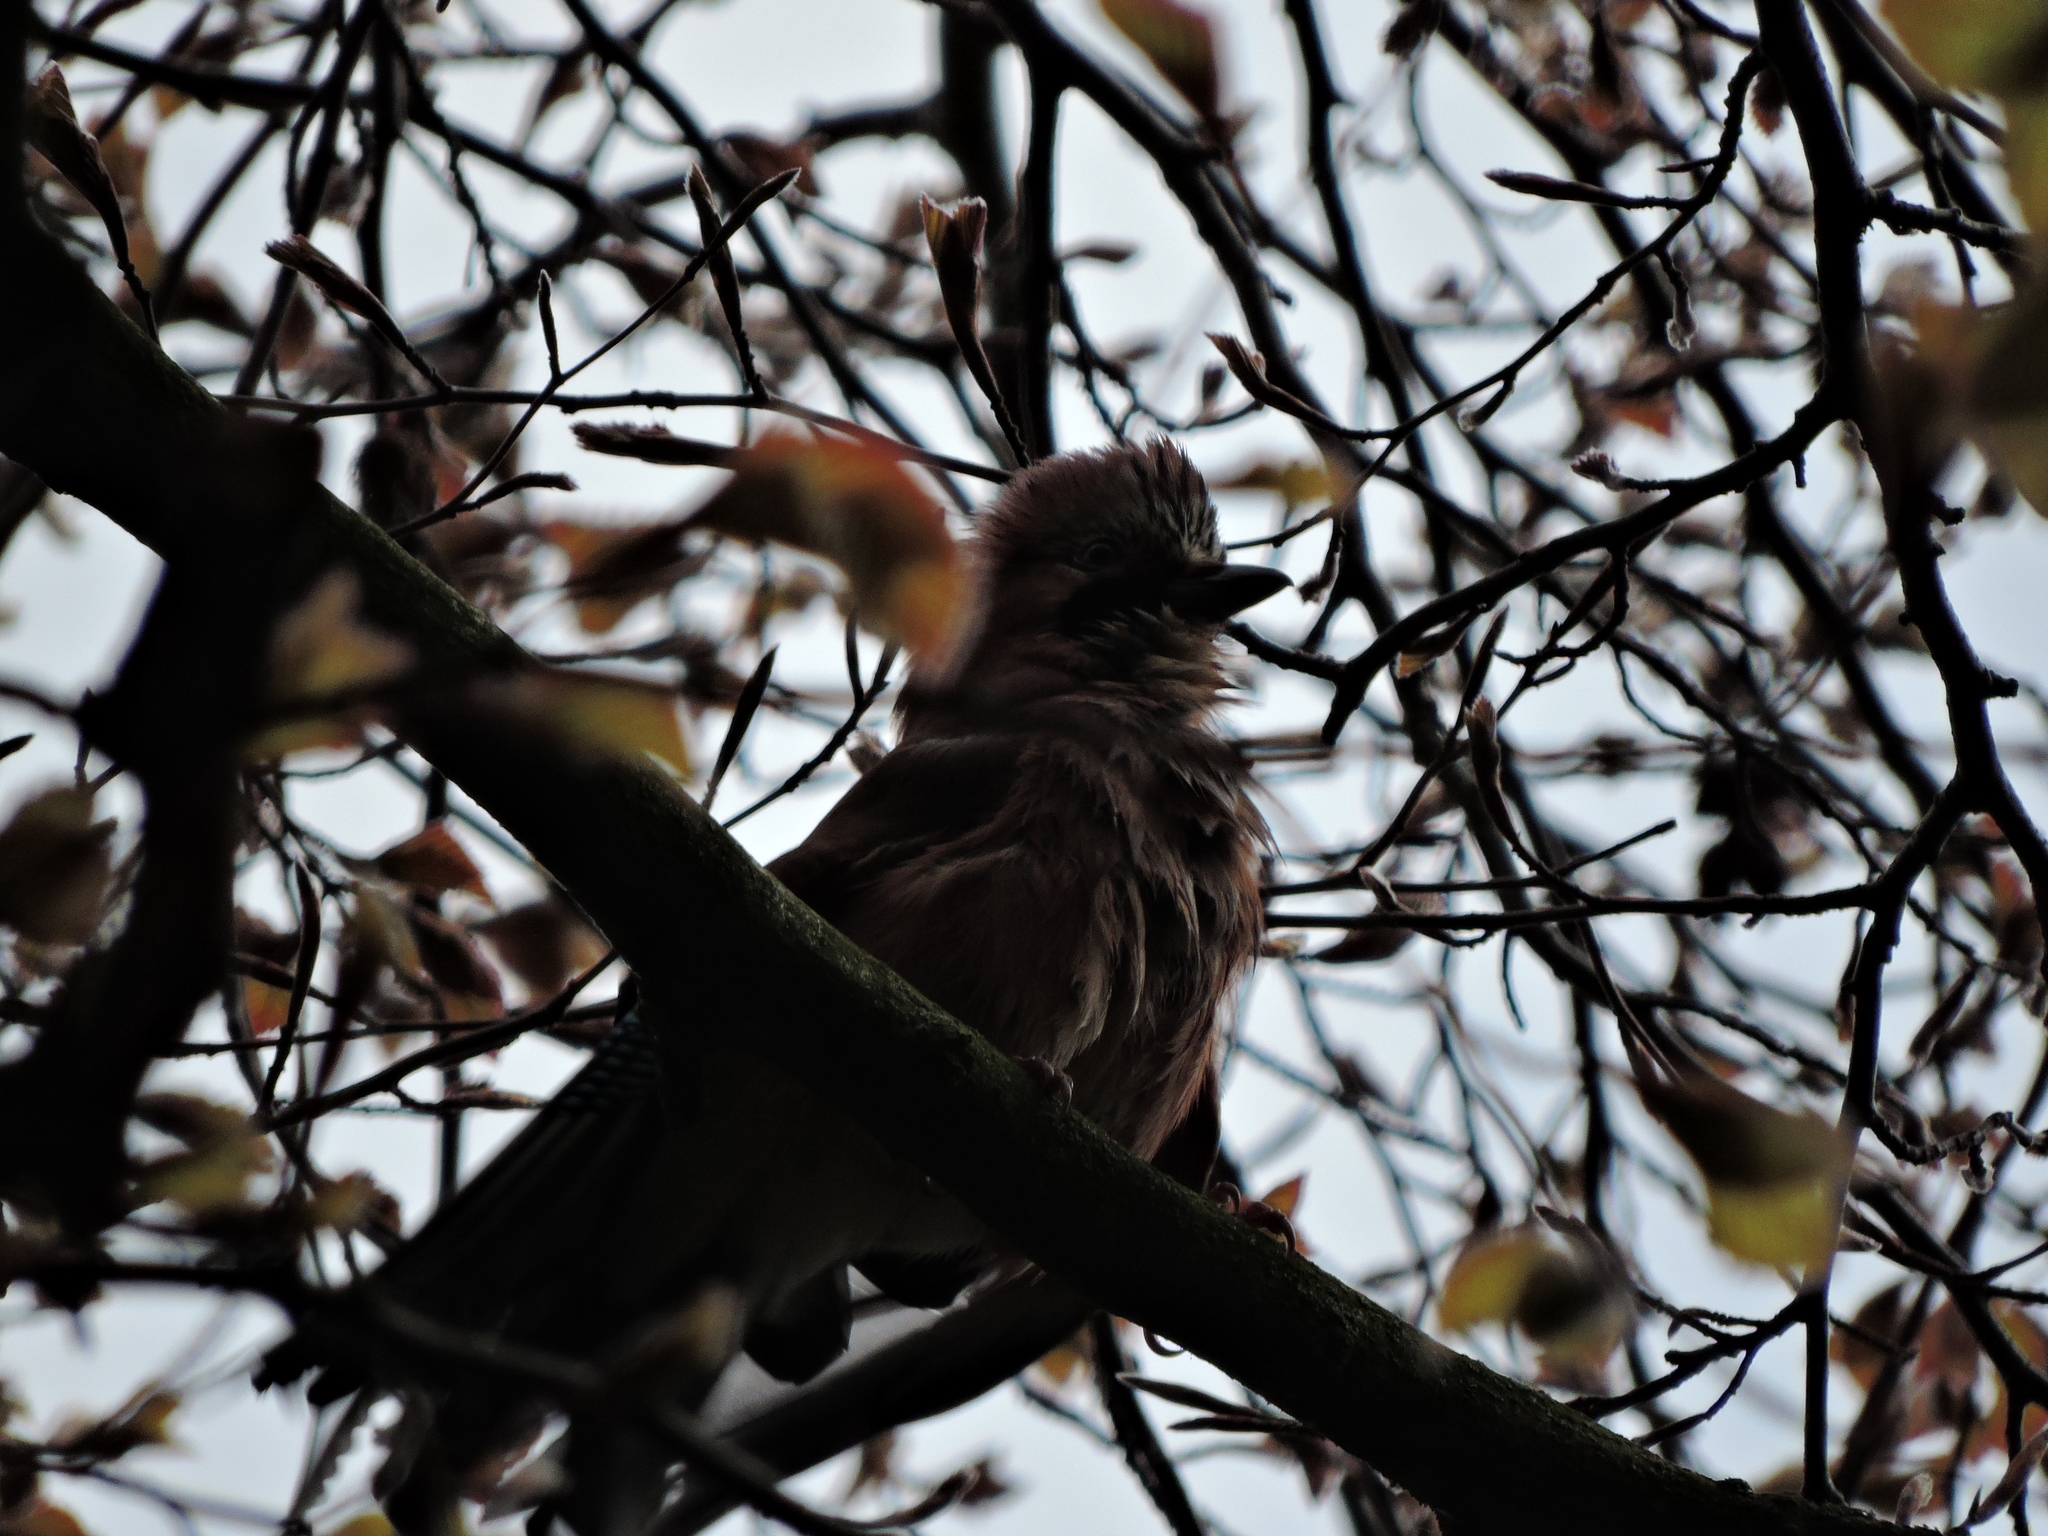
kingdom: Animalia
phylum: Chordata
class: Aves
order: Passeriformes
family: Corvidae
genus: Garrulus
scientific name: Garrulus glandarius
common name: Eurasian jay
